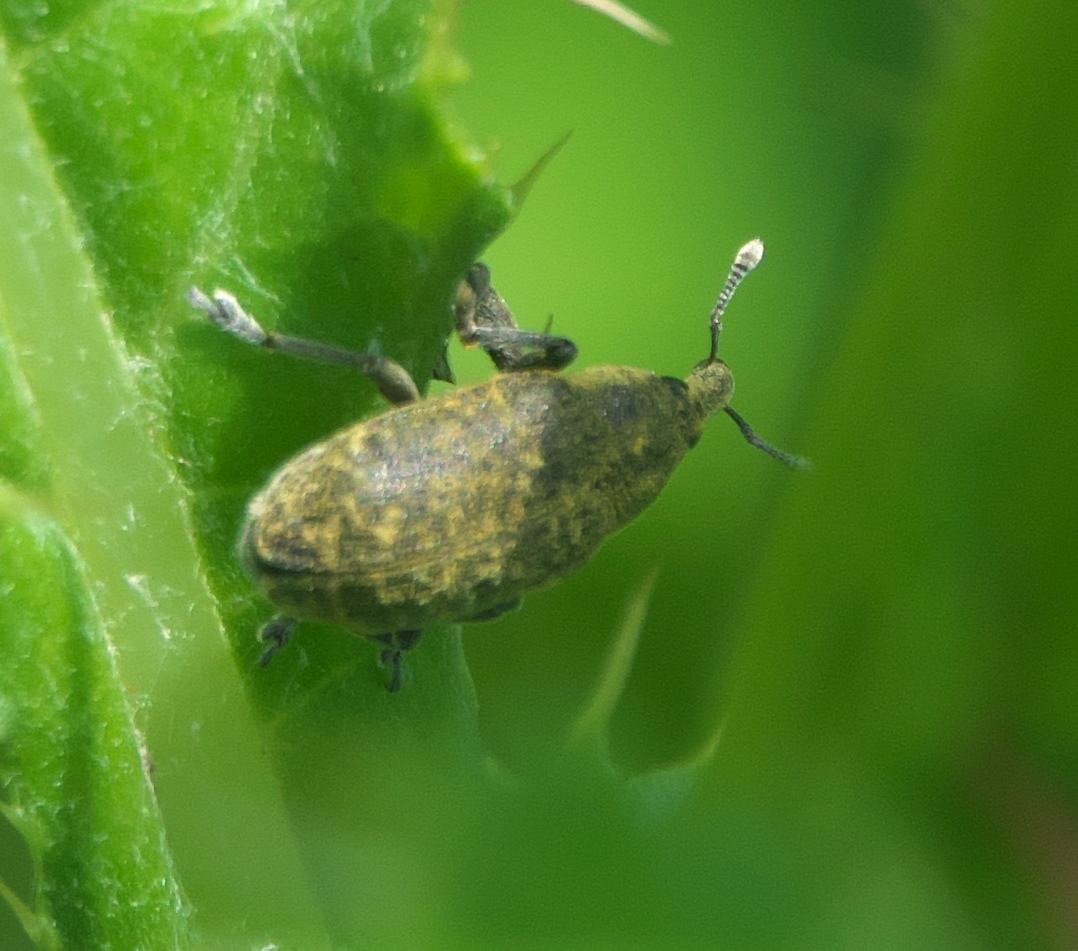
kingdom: Animalia
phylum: Arthropoda
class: Insecta
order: Coleoptera
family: Curculionidae
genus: Larinus
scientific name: Larinus carlinae
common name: Weevil
